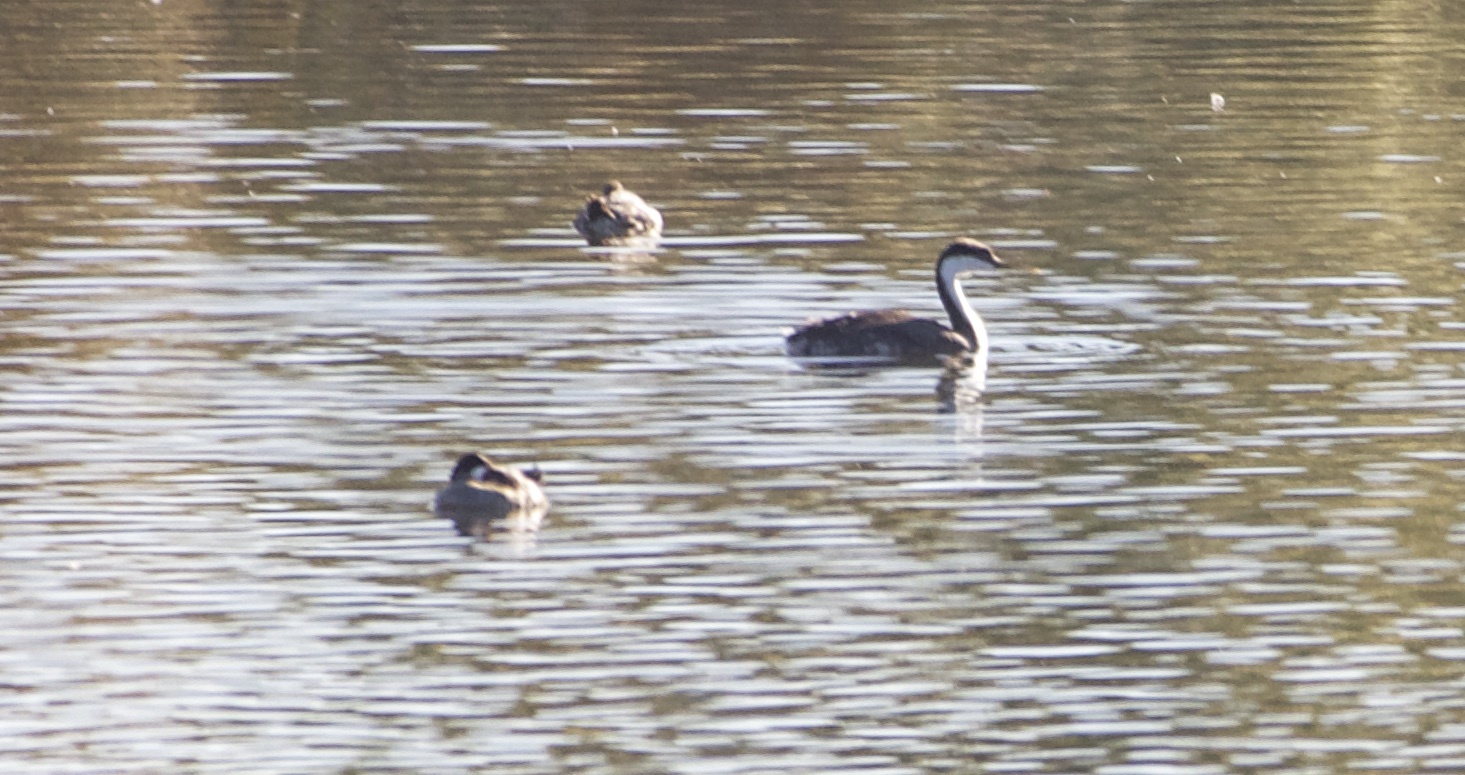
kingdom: Animalia
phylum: Chordata
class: Aves
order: Podicipediformes
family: Podicipedidae
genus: Aechmophorus
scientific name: Aechmophorus occidentalis
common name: Western grebe
